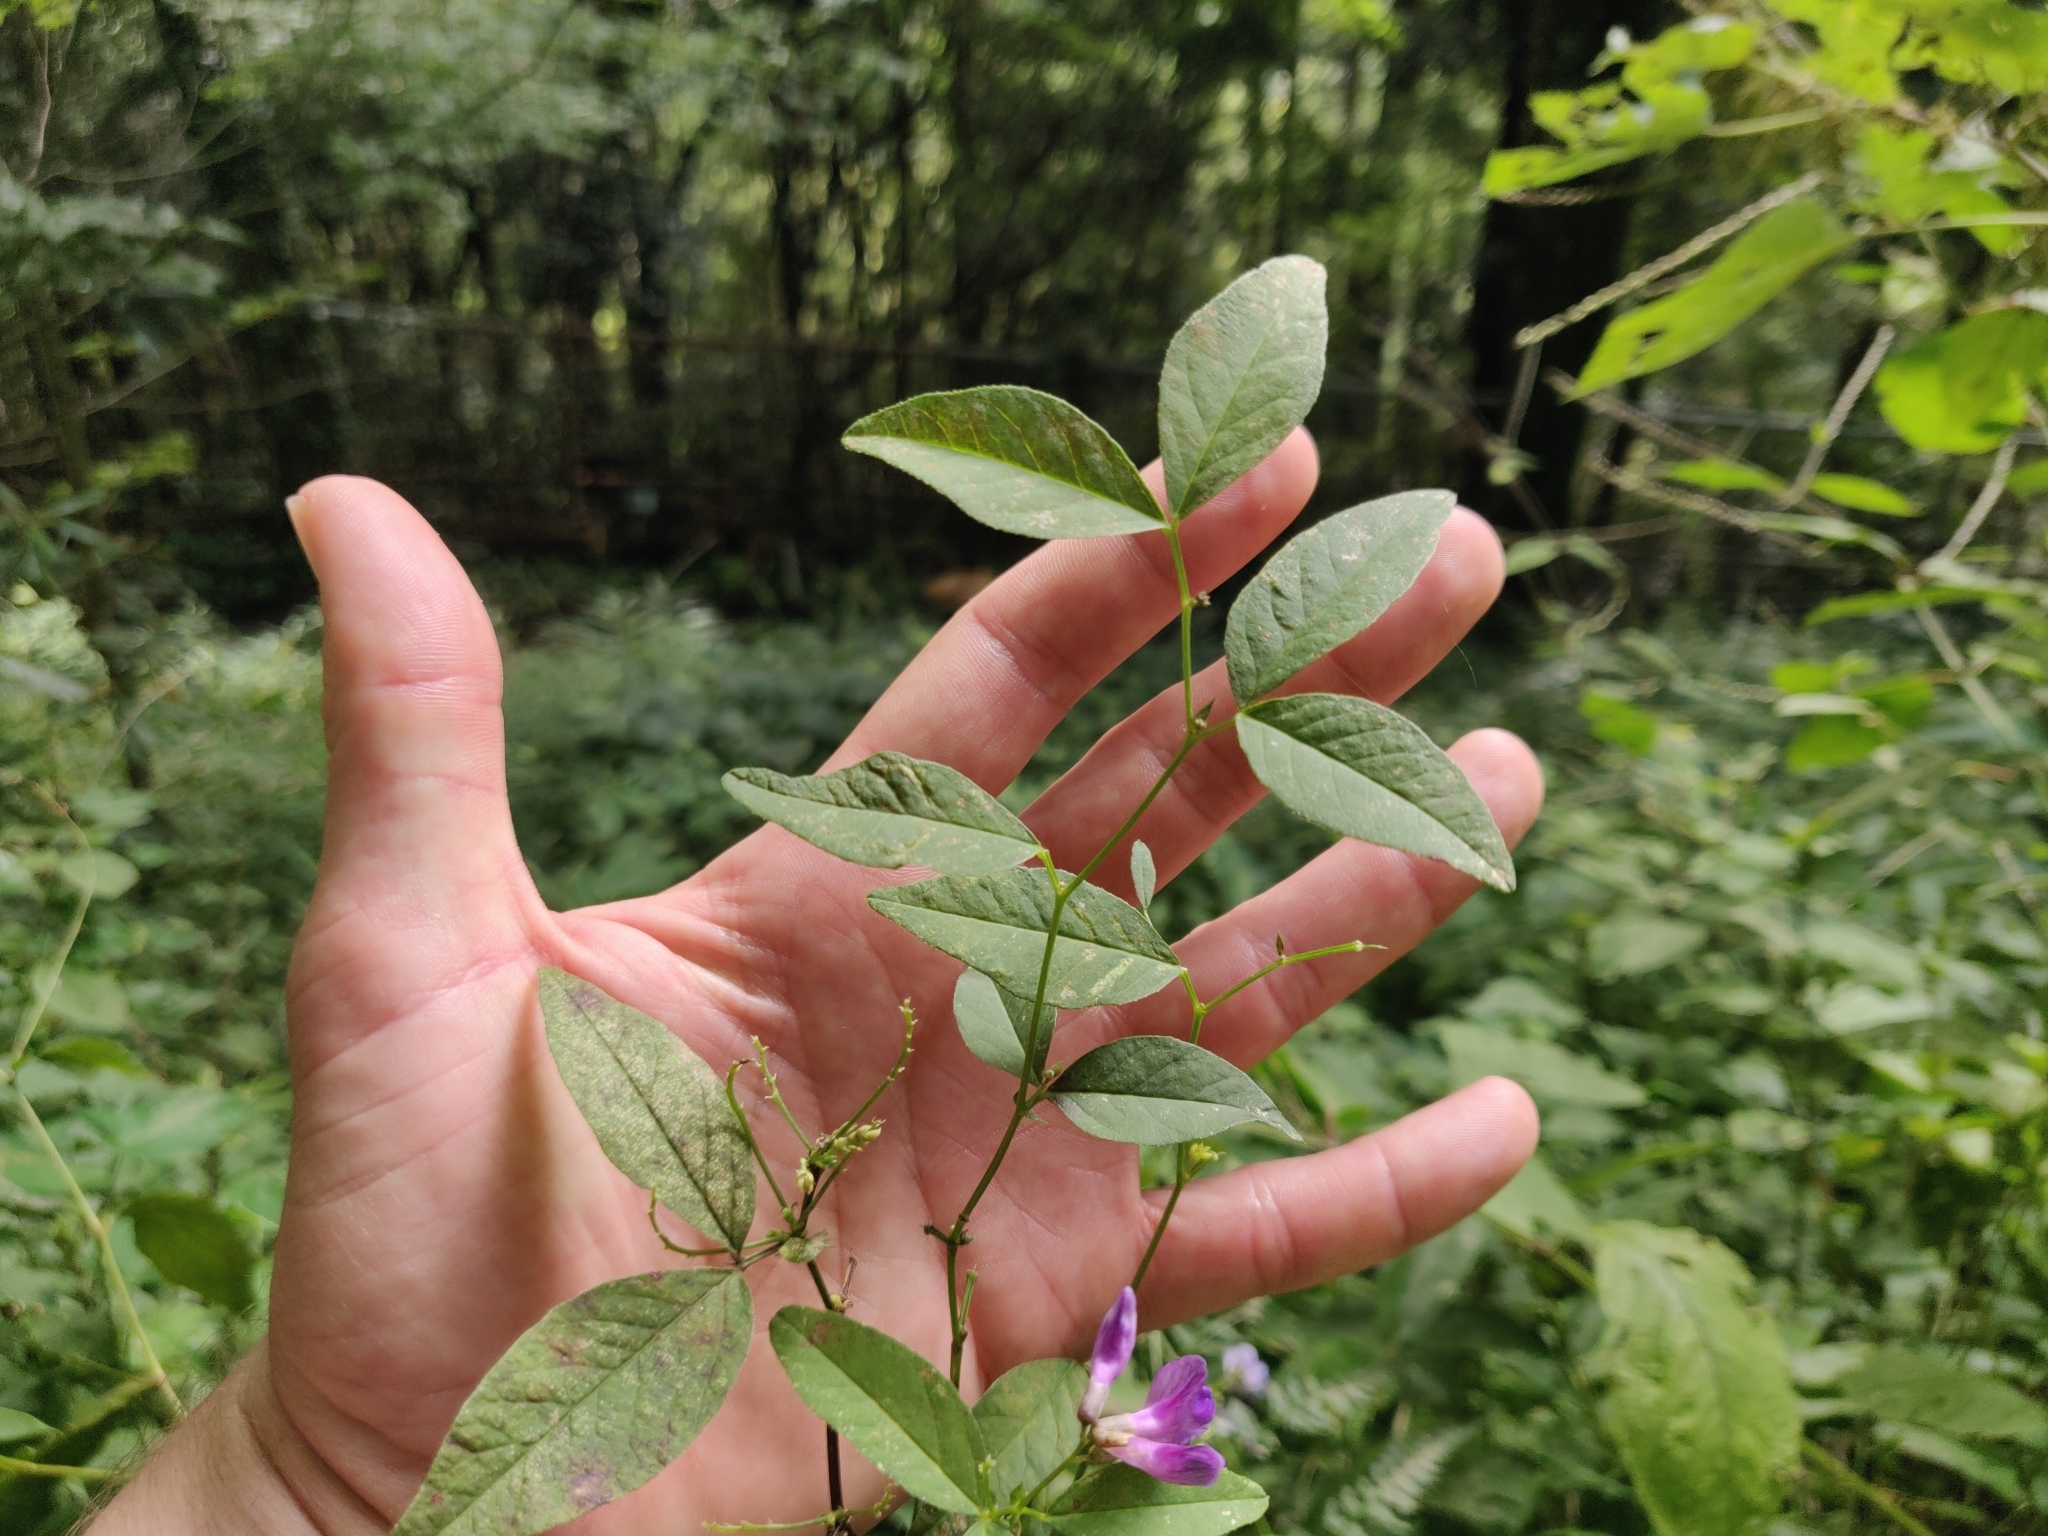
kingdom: Plantae
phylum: Tracheophyta
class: Magnoliopsida
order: Fabales
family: Fabaceae
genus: Vicia
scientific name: Vicia unijuga
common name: Two-leaf vetch
